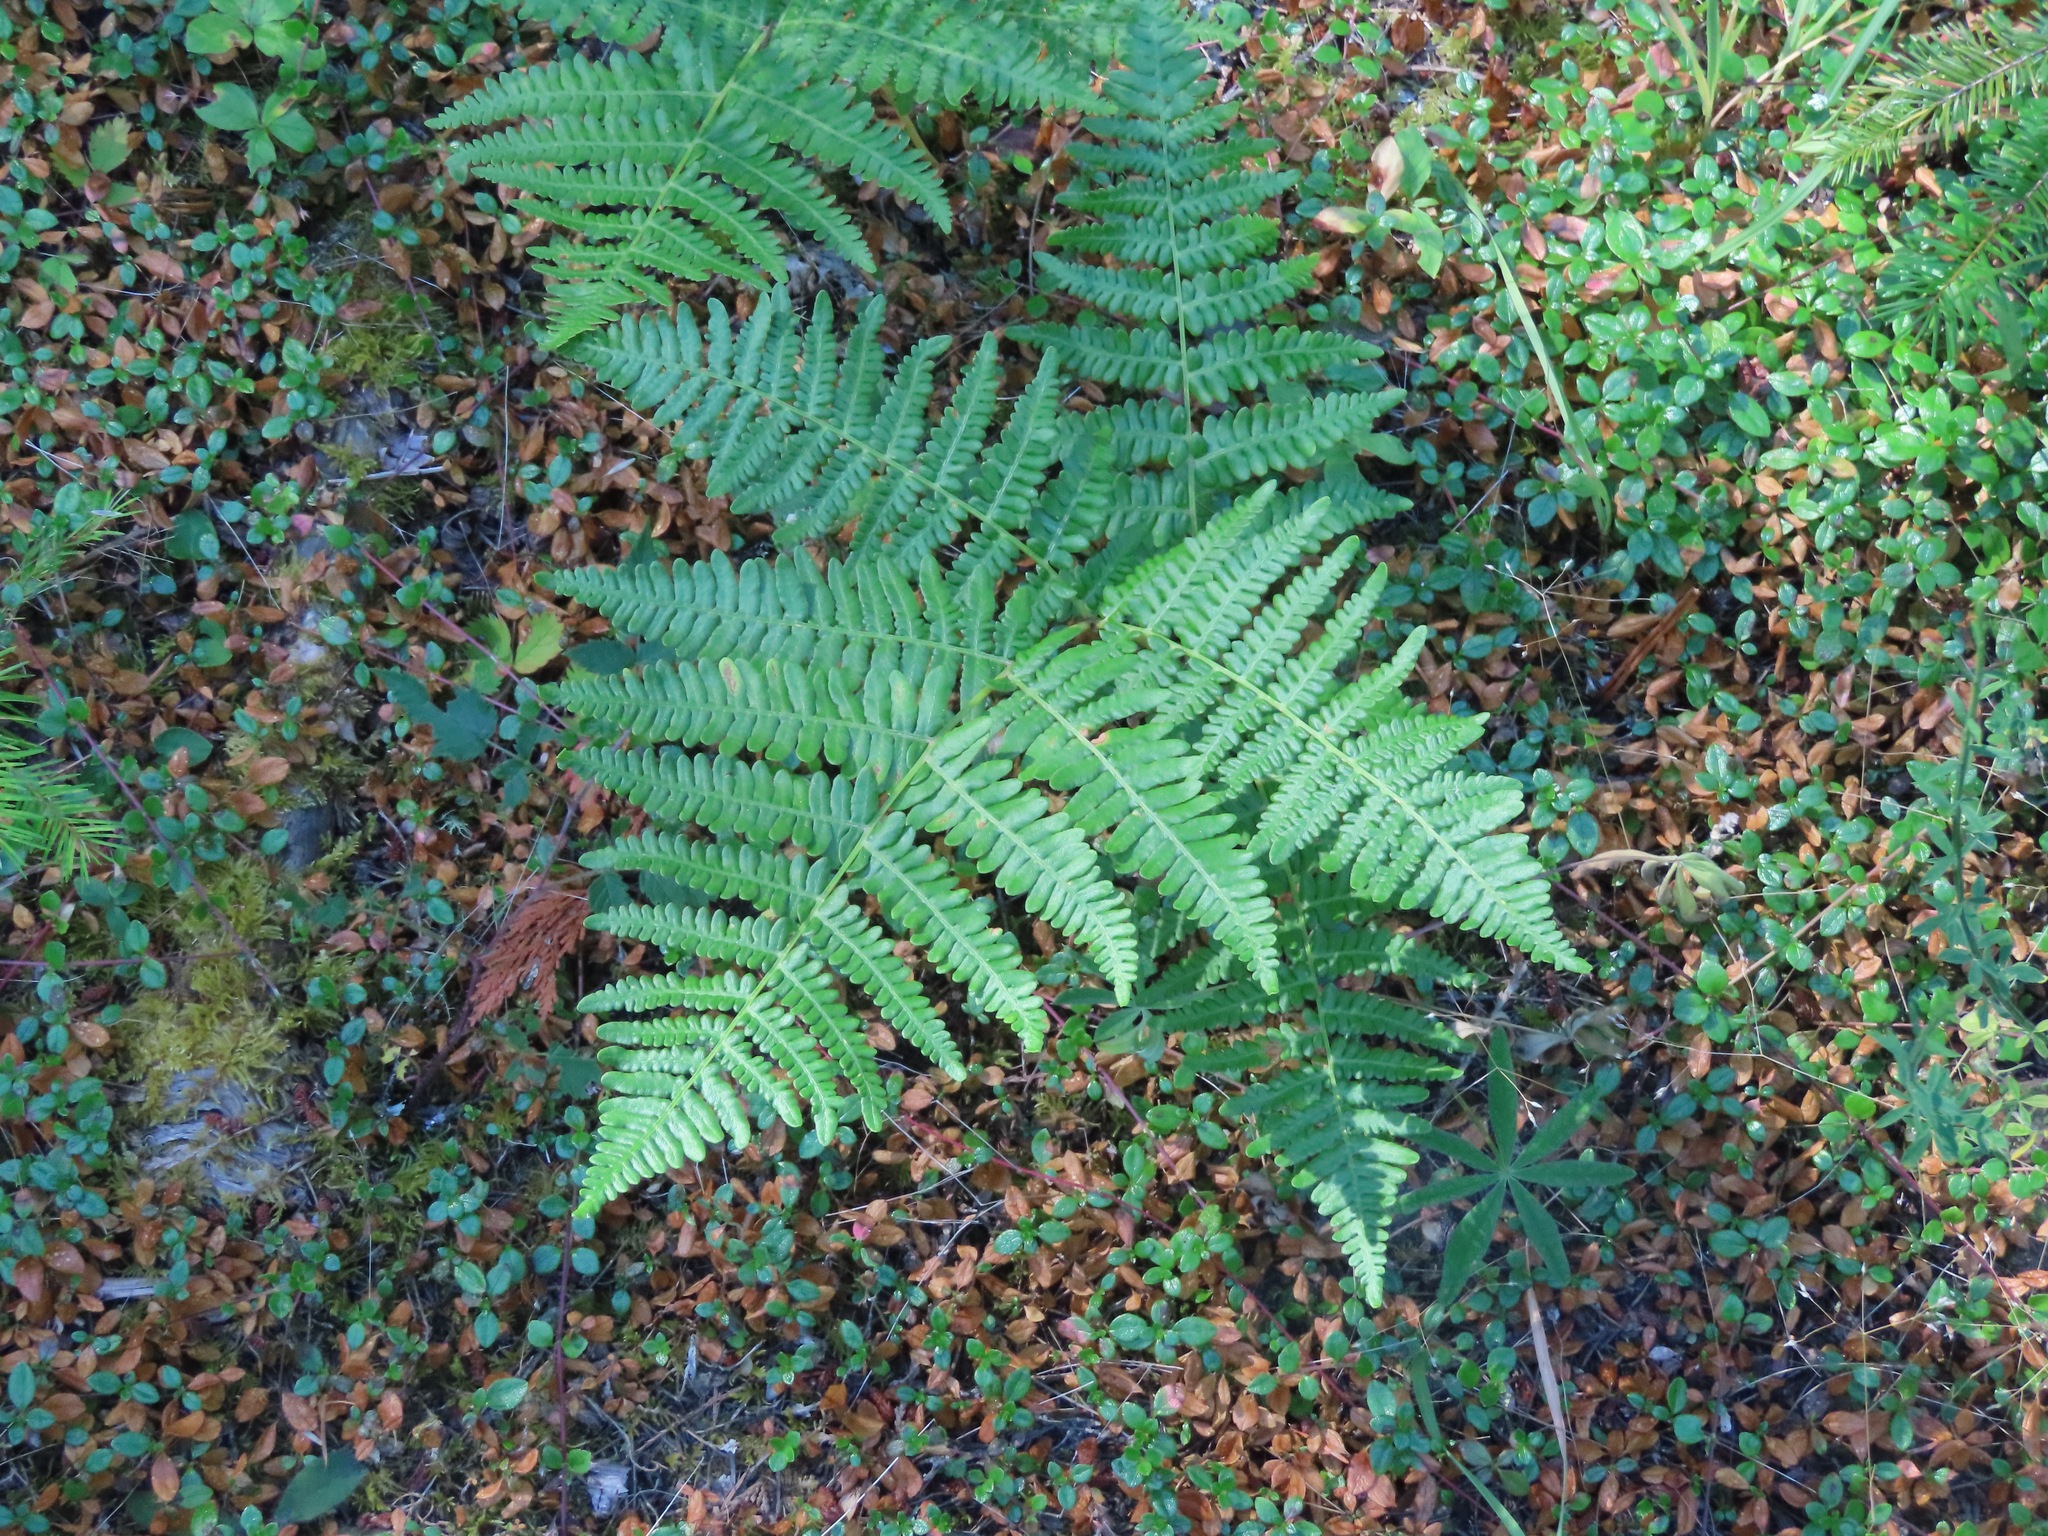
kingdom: Plantae
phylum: Tracheophyta
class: Polypodiopsida
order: Polypodiales
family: Dennstaedtiaceae
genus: Pteridium
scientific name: Pteridium aquilinum
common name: Bracken
